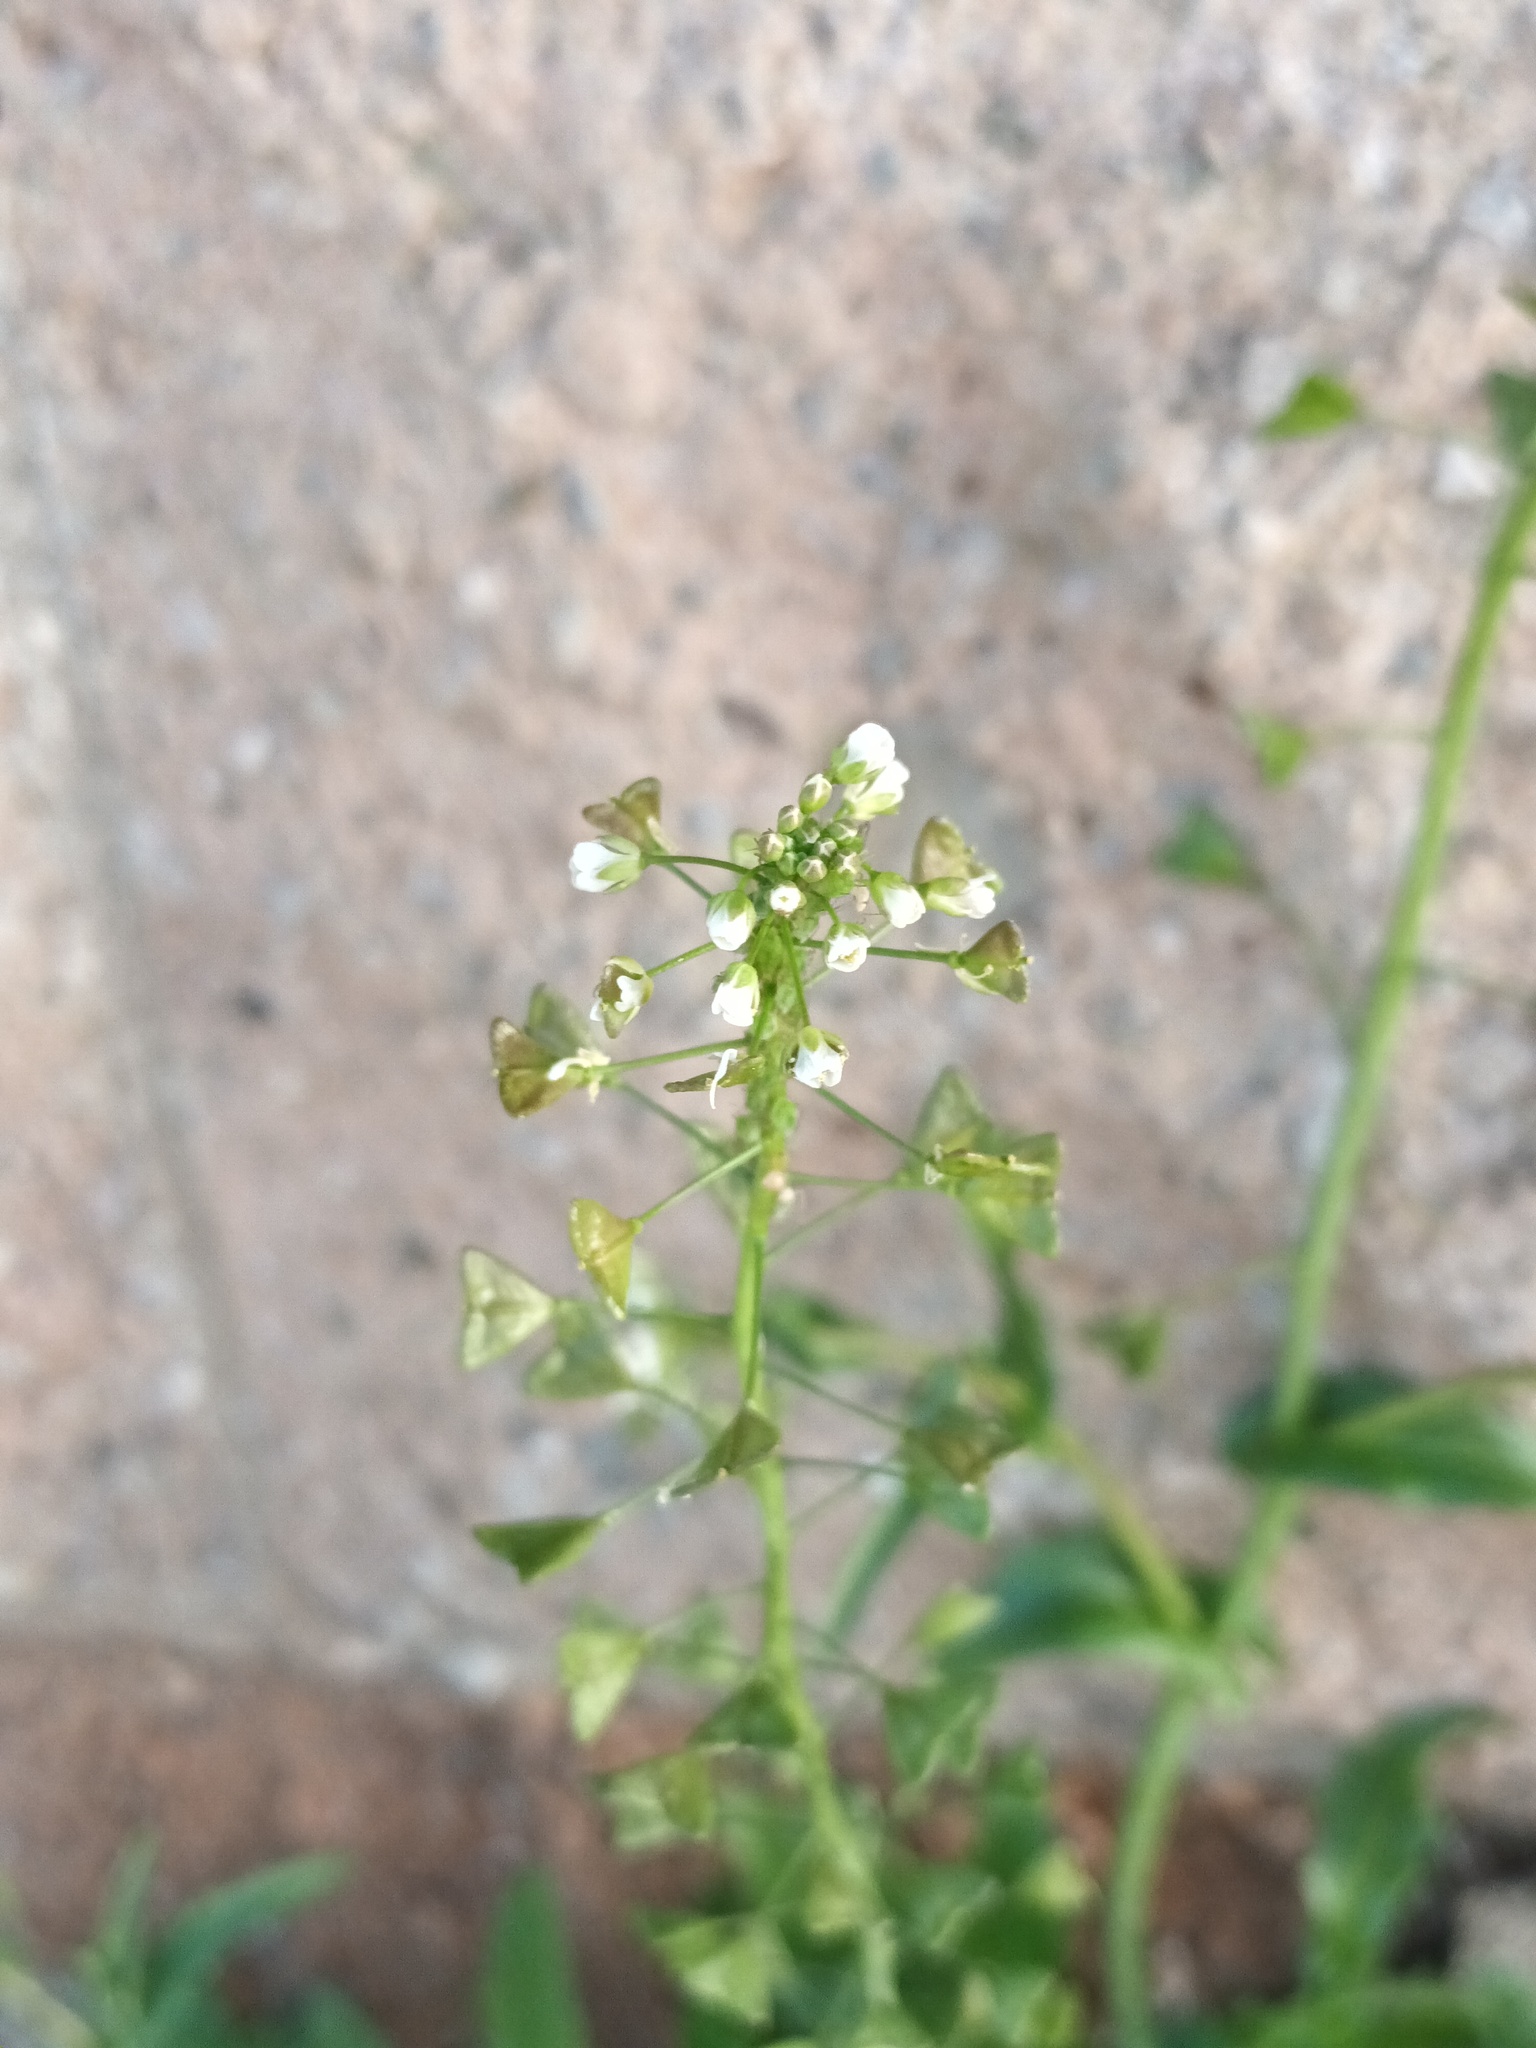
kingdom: Plantae
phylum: Tracheophyta
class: Magnoliopsida
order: Brassicales
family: Brassicaceae
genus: Capsella
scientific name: Capsella bursa-pastoris
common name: Shepherd's purse
